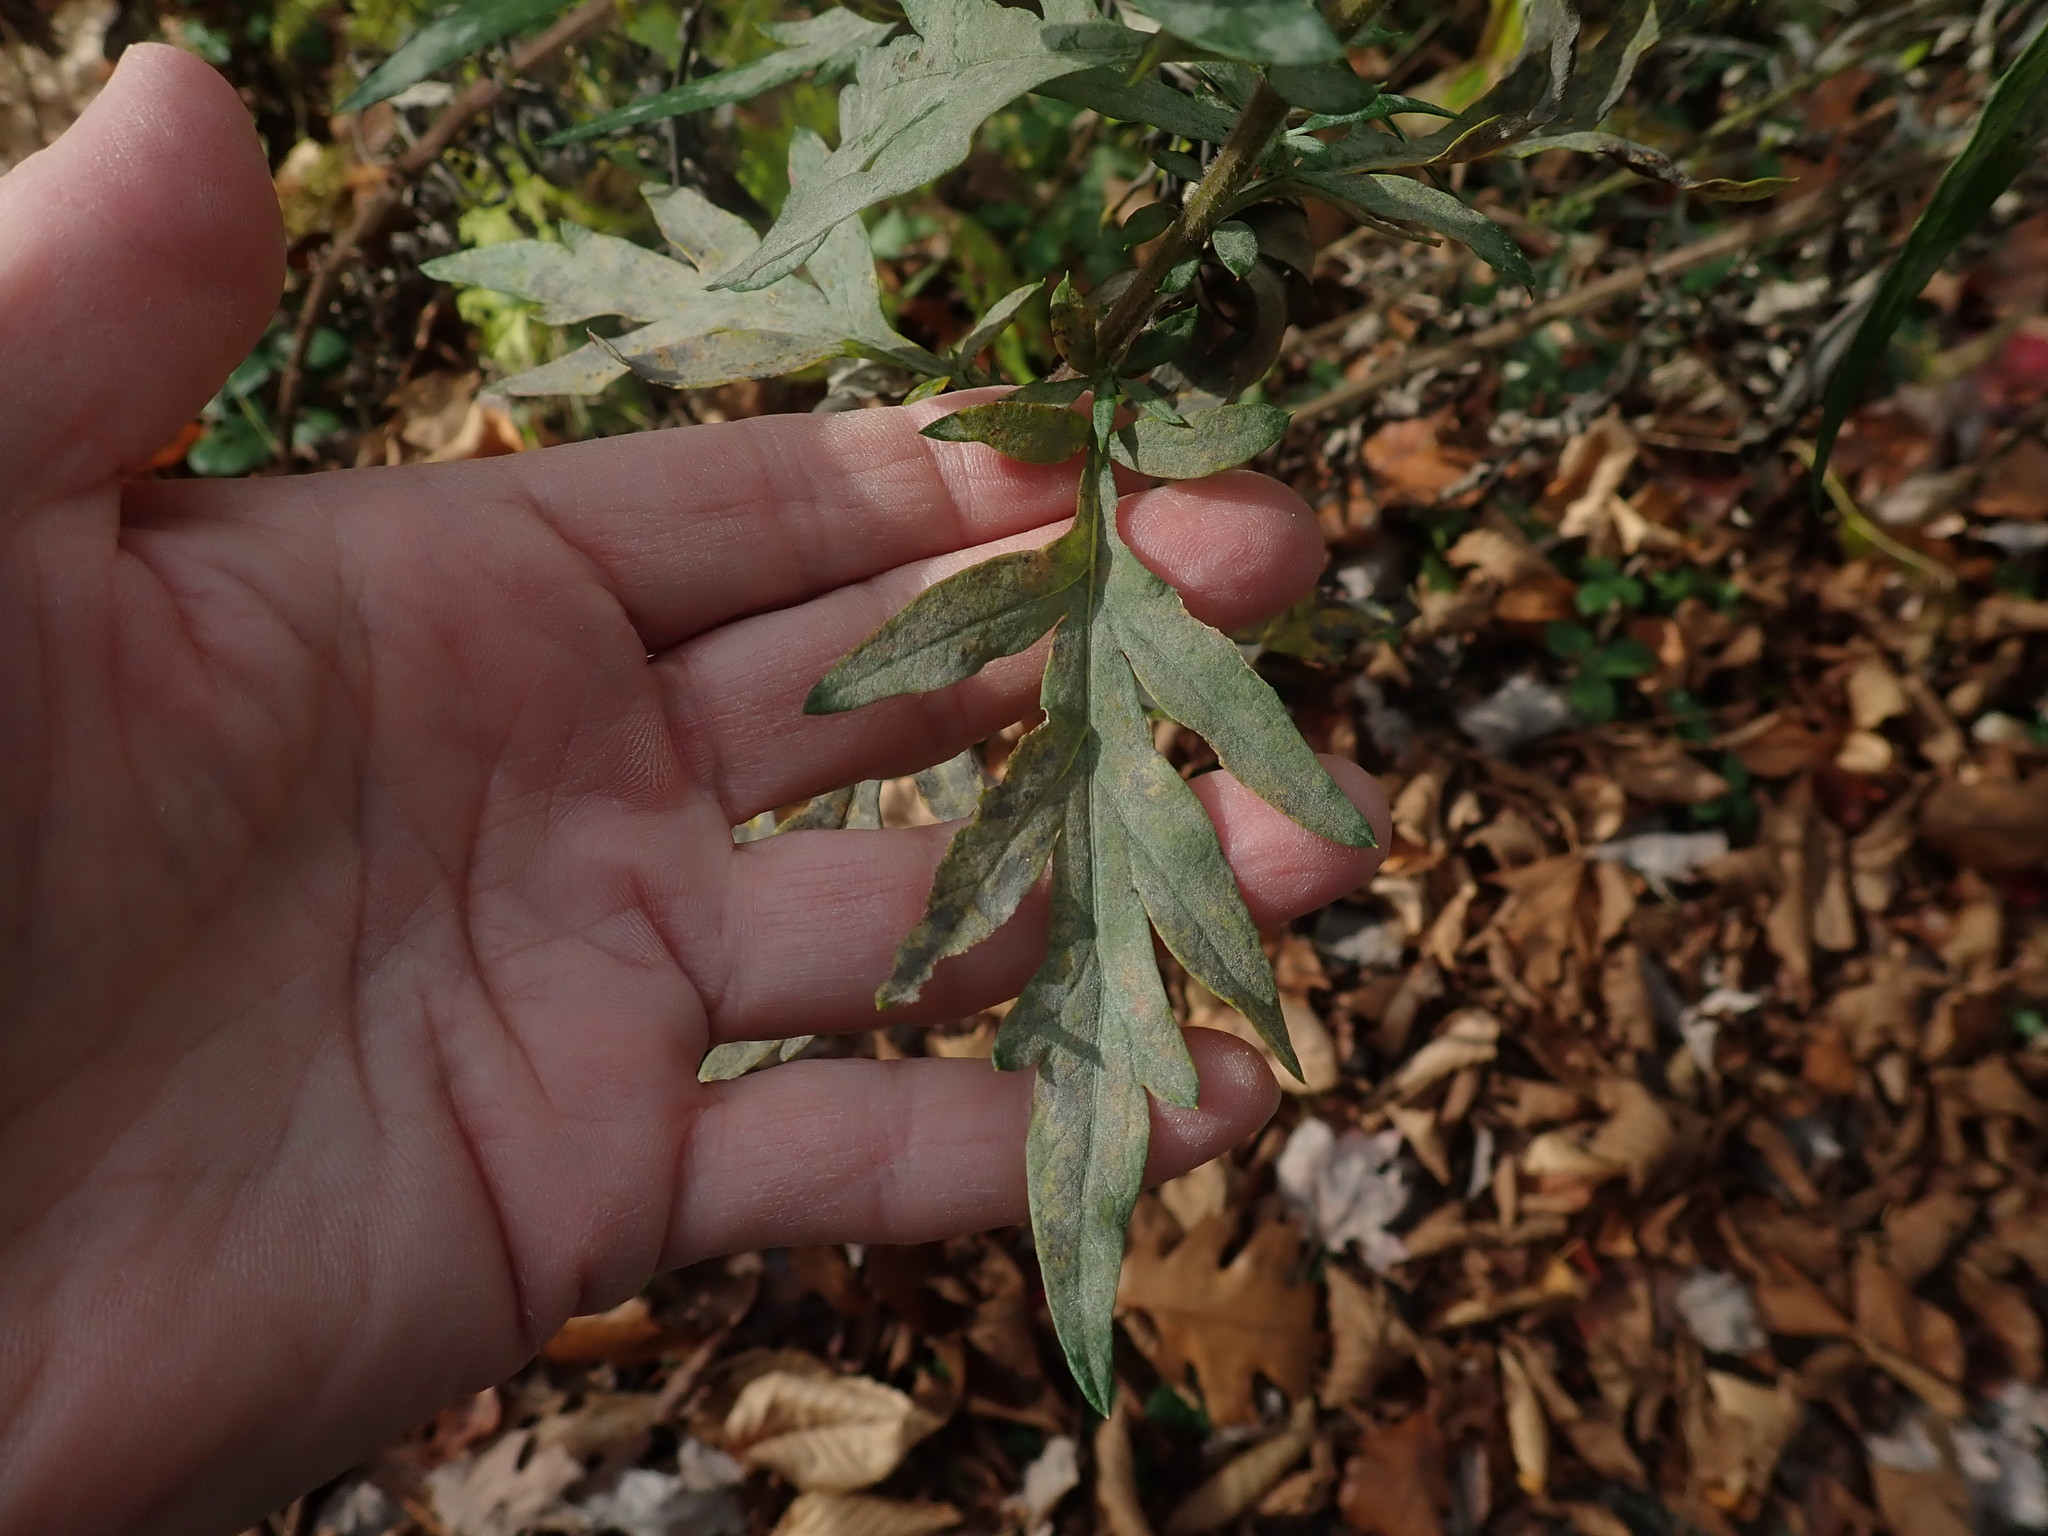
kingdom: Plantae
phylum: Tracheophyta
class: Magnoliopsida
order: Asterales
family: Asteraceae
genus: Artemisia
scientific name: Artemisia vulgaris
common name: Mugwort
